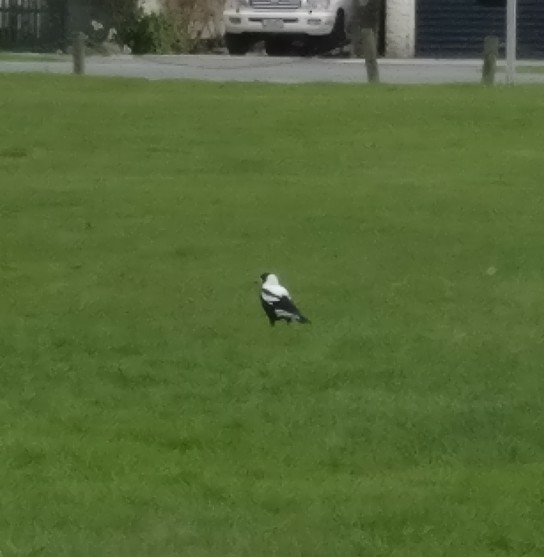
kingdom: Animalia
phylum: Chordata
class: Aves
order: Passeriformes
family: Cracticidae
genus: Gymnorhina
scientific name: Gymnorhina tibicen
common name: Australian magpie
